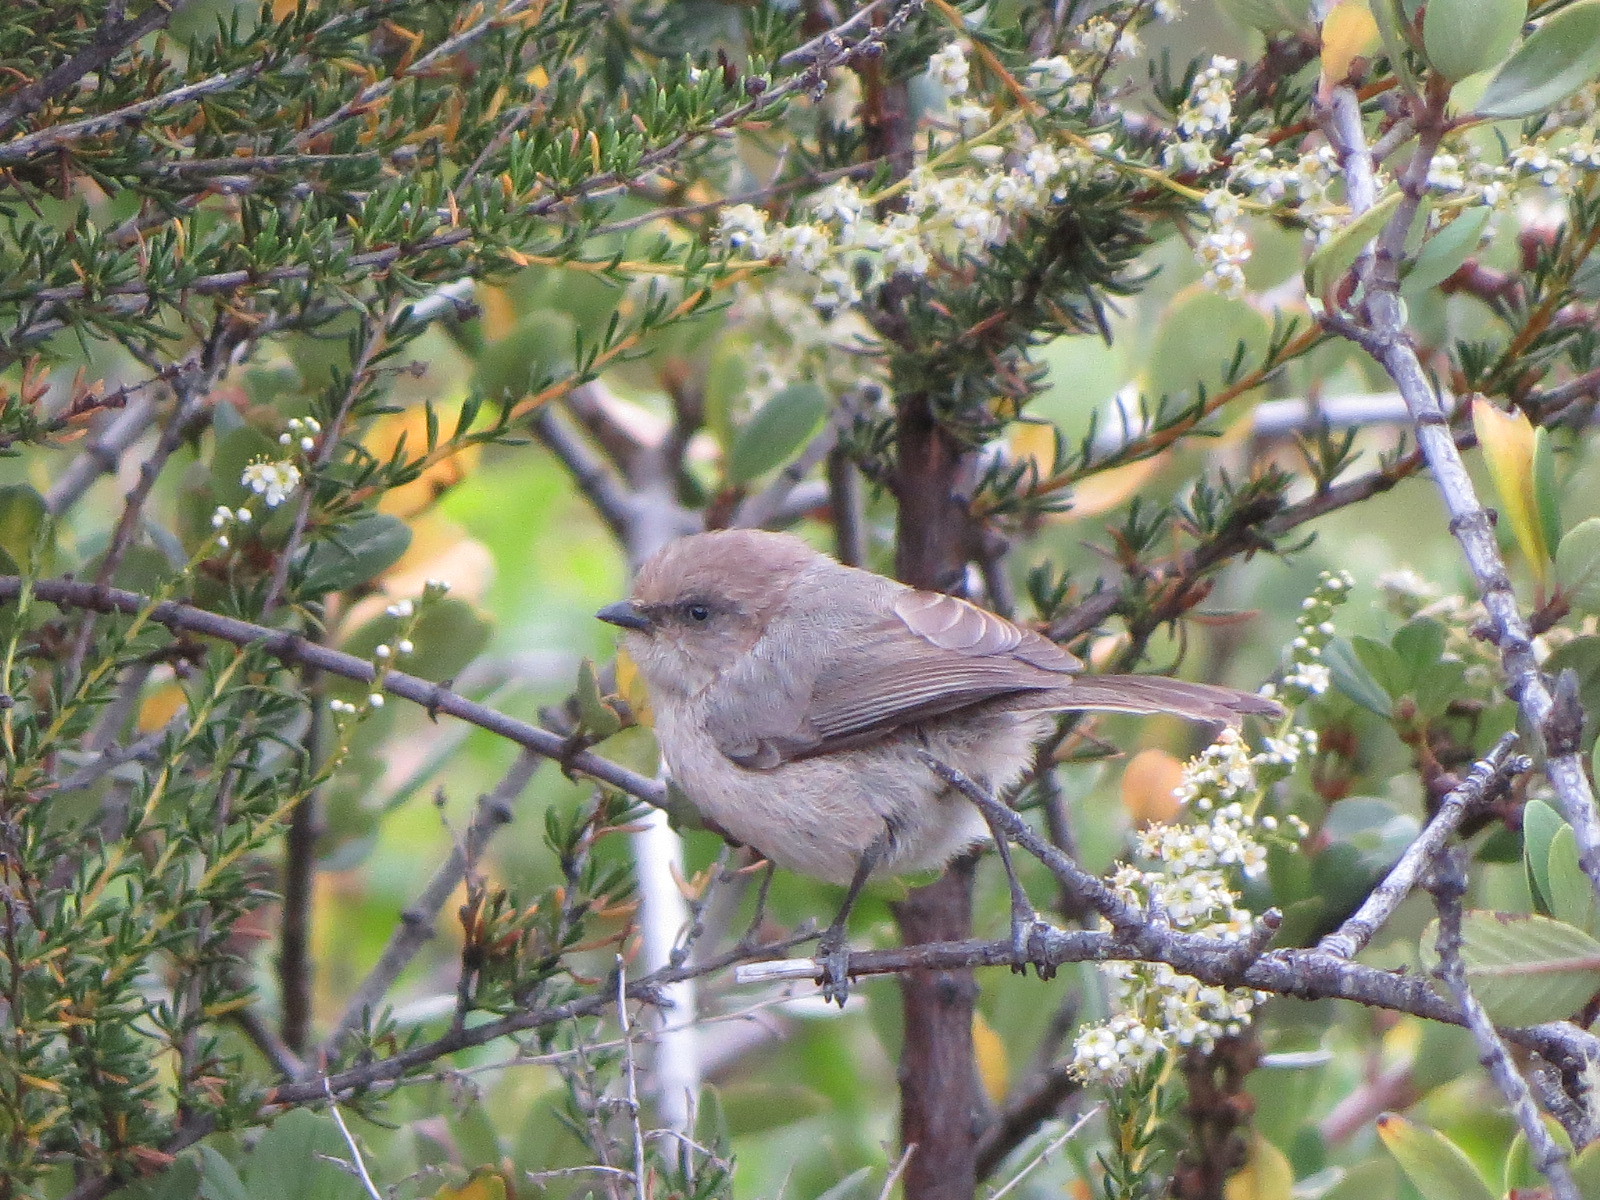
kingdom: Animalia
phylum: Chordata
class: Aves
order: Passeriformes
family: Aegithalidae
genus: Psaltriparus
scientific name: Psaltriparus minimus
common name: American bushtit
